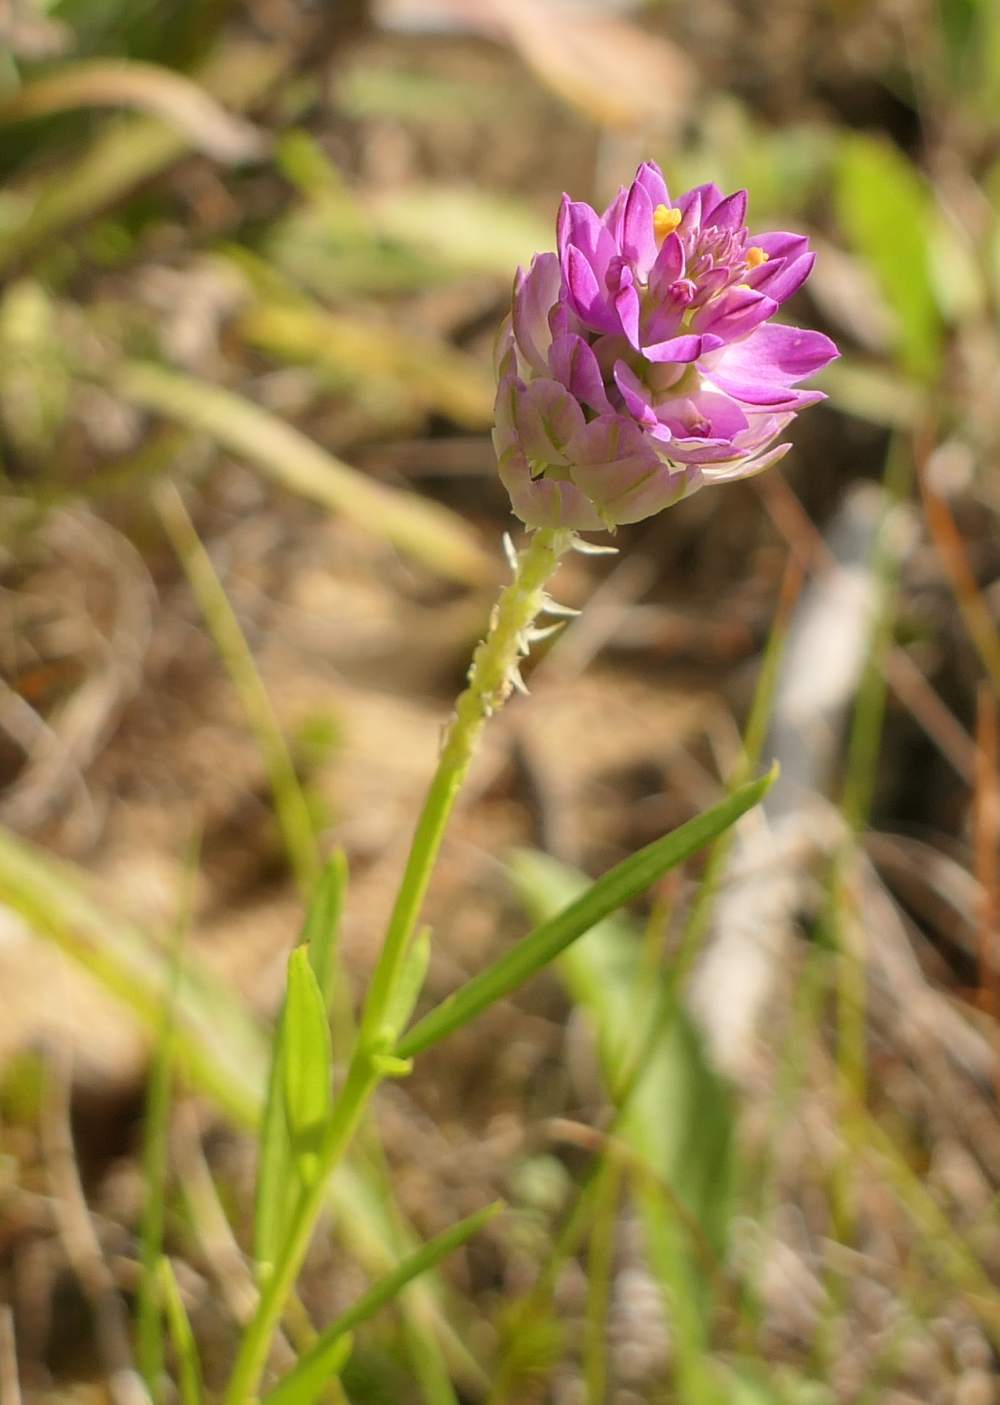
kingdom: Plantae
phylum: Tracheophyta
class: Magnoliopsida
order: Fabales
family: Polygalaceae
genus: Polygala
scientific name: Polygala sanguinea
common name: Blood milkwort
